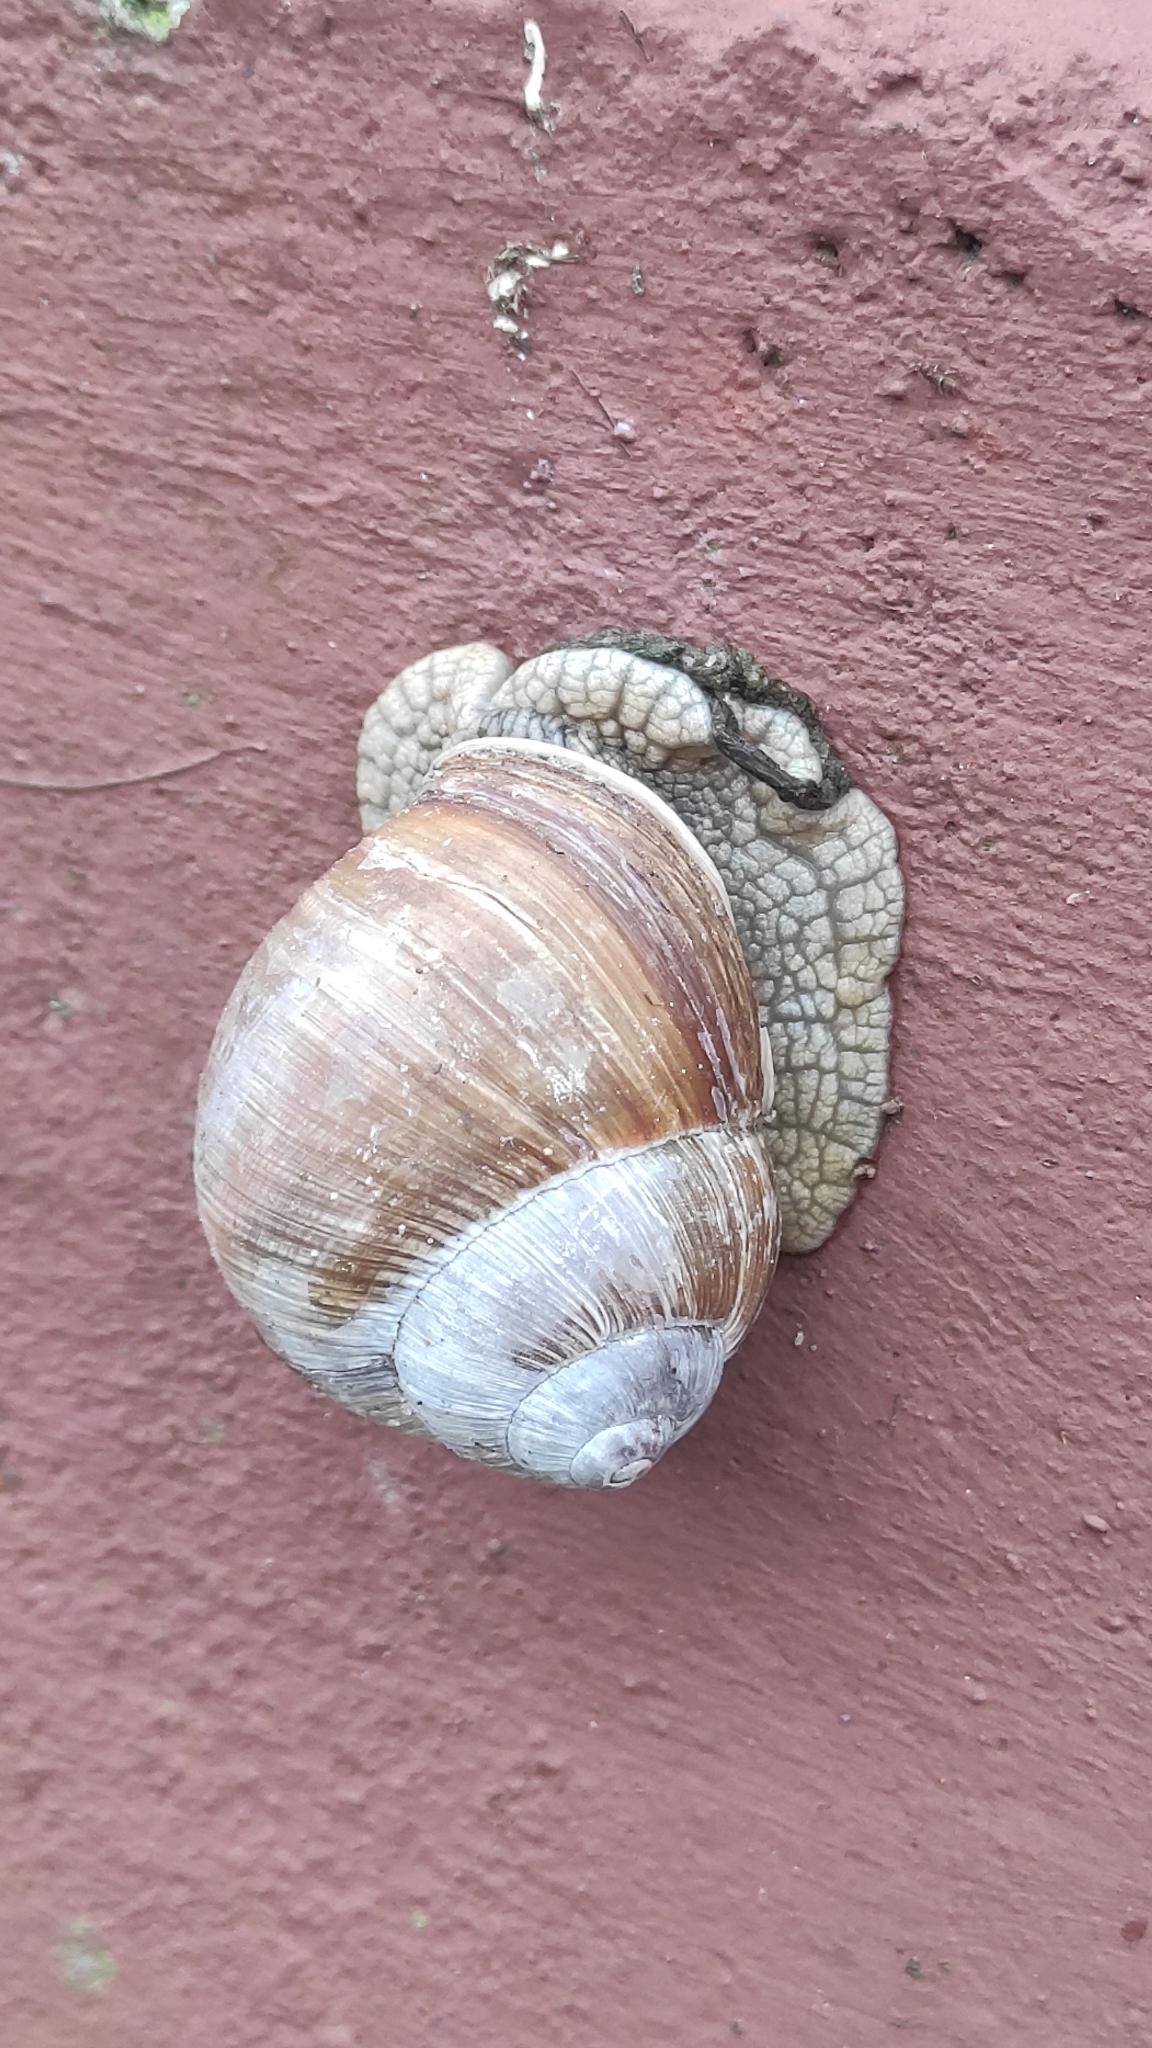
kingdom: Animalia
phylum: Mollusca
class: Gastropoda
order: Stylommatophora
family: Helicidae
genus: Helix
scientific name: Helix pomatia
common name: Roman snail
